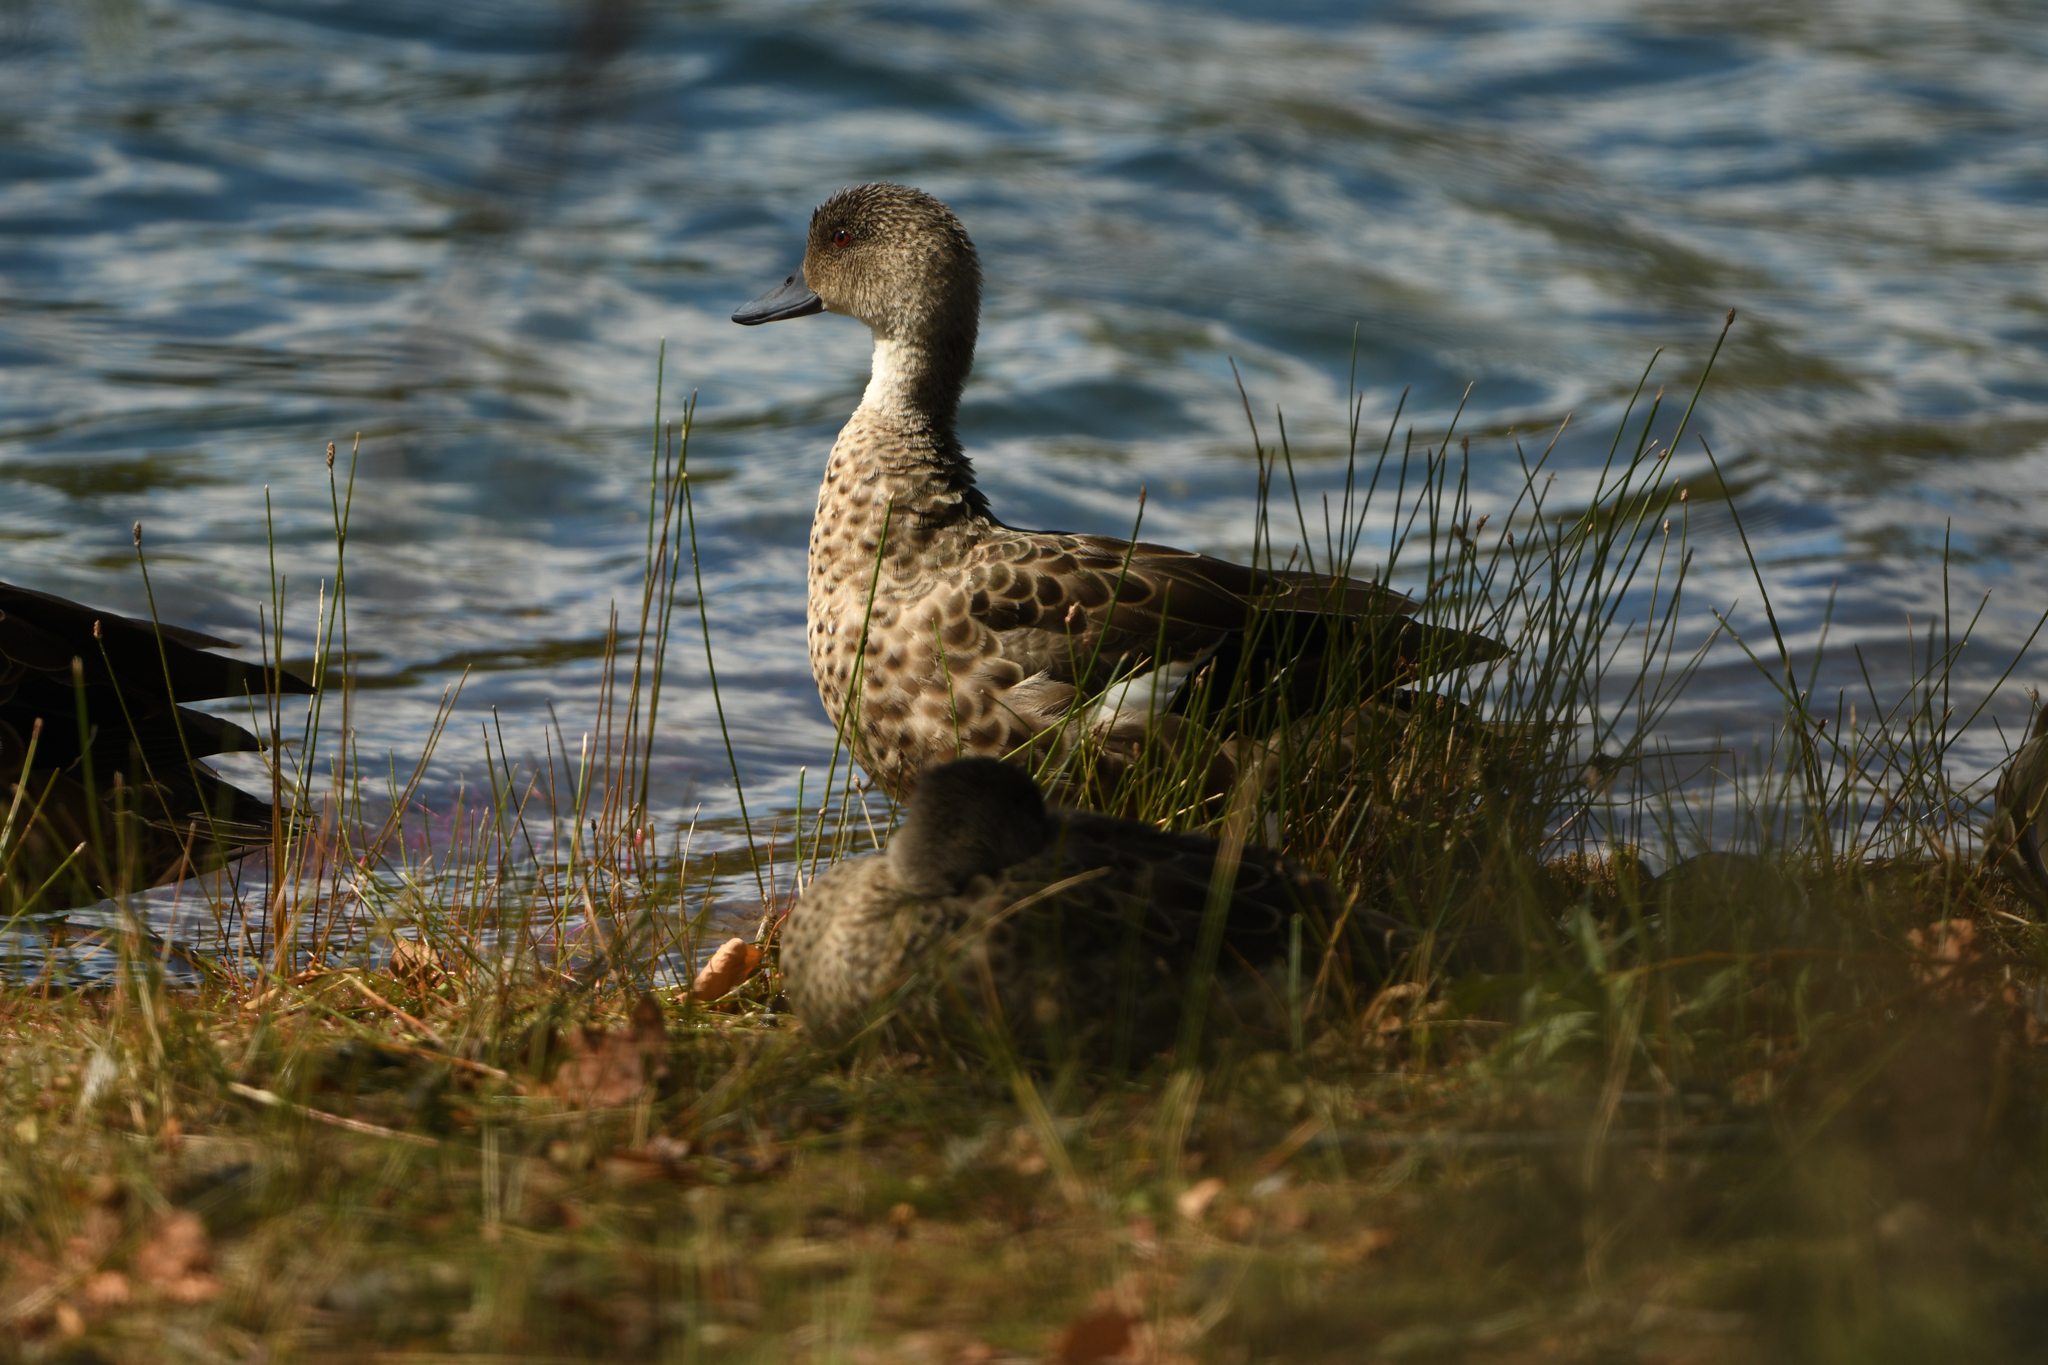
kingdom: Animalia
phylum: Chordata
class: Aves
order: Anseriformes
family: Anatidae
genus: Anas
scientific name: Anas gracilis
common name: Grey teal
